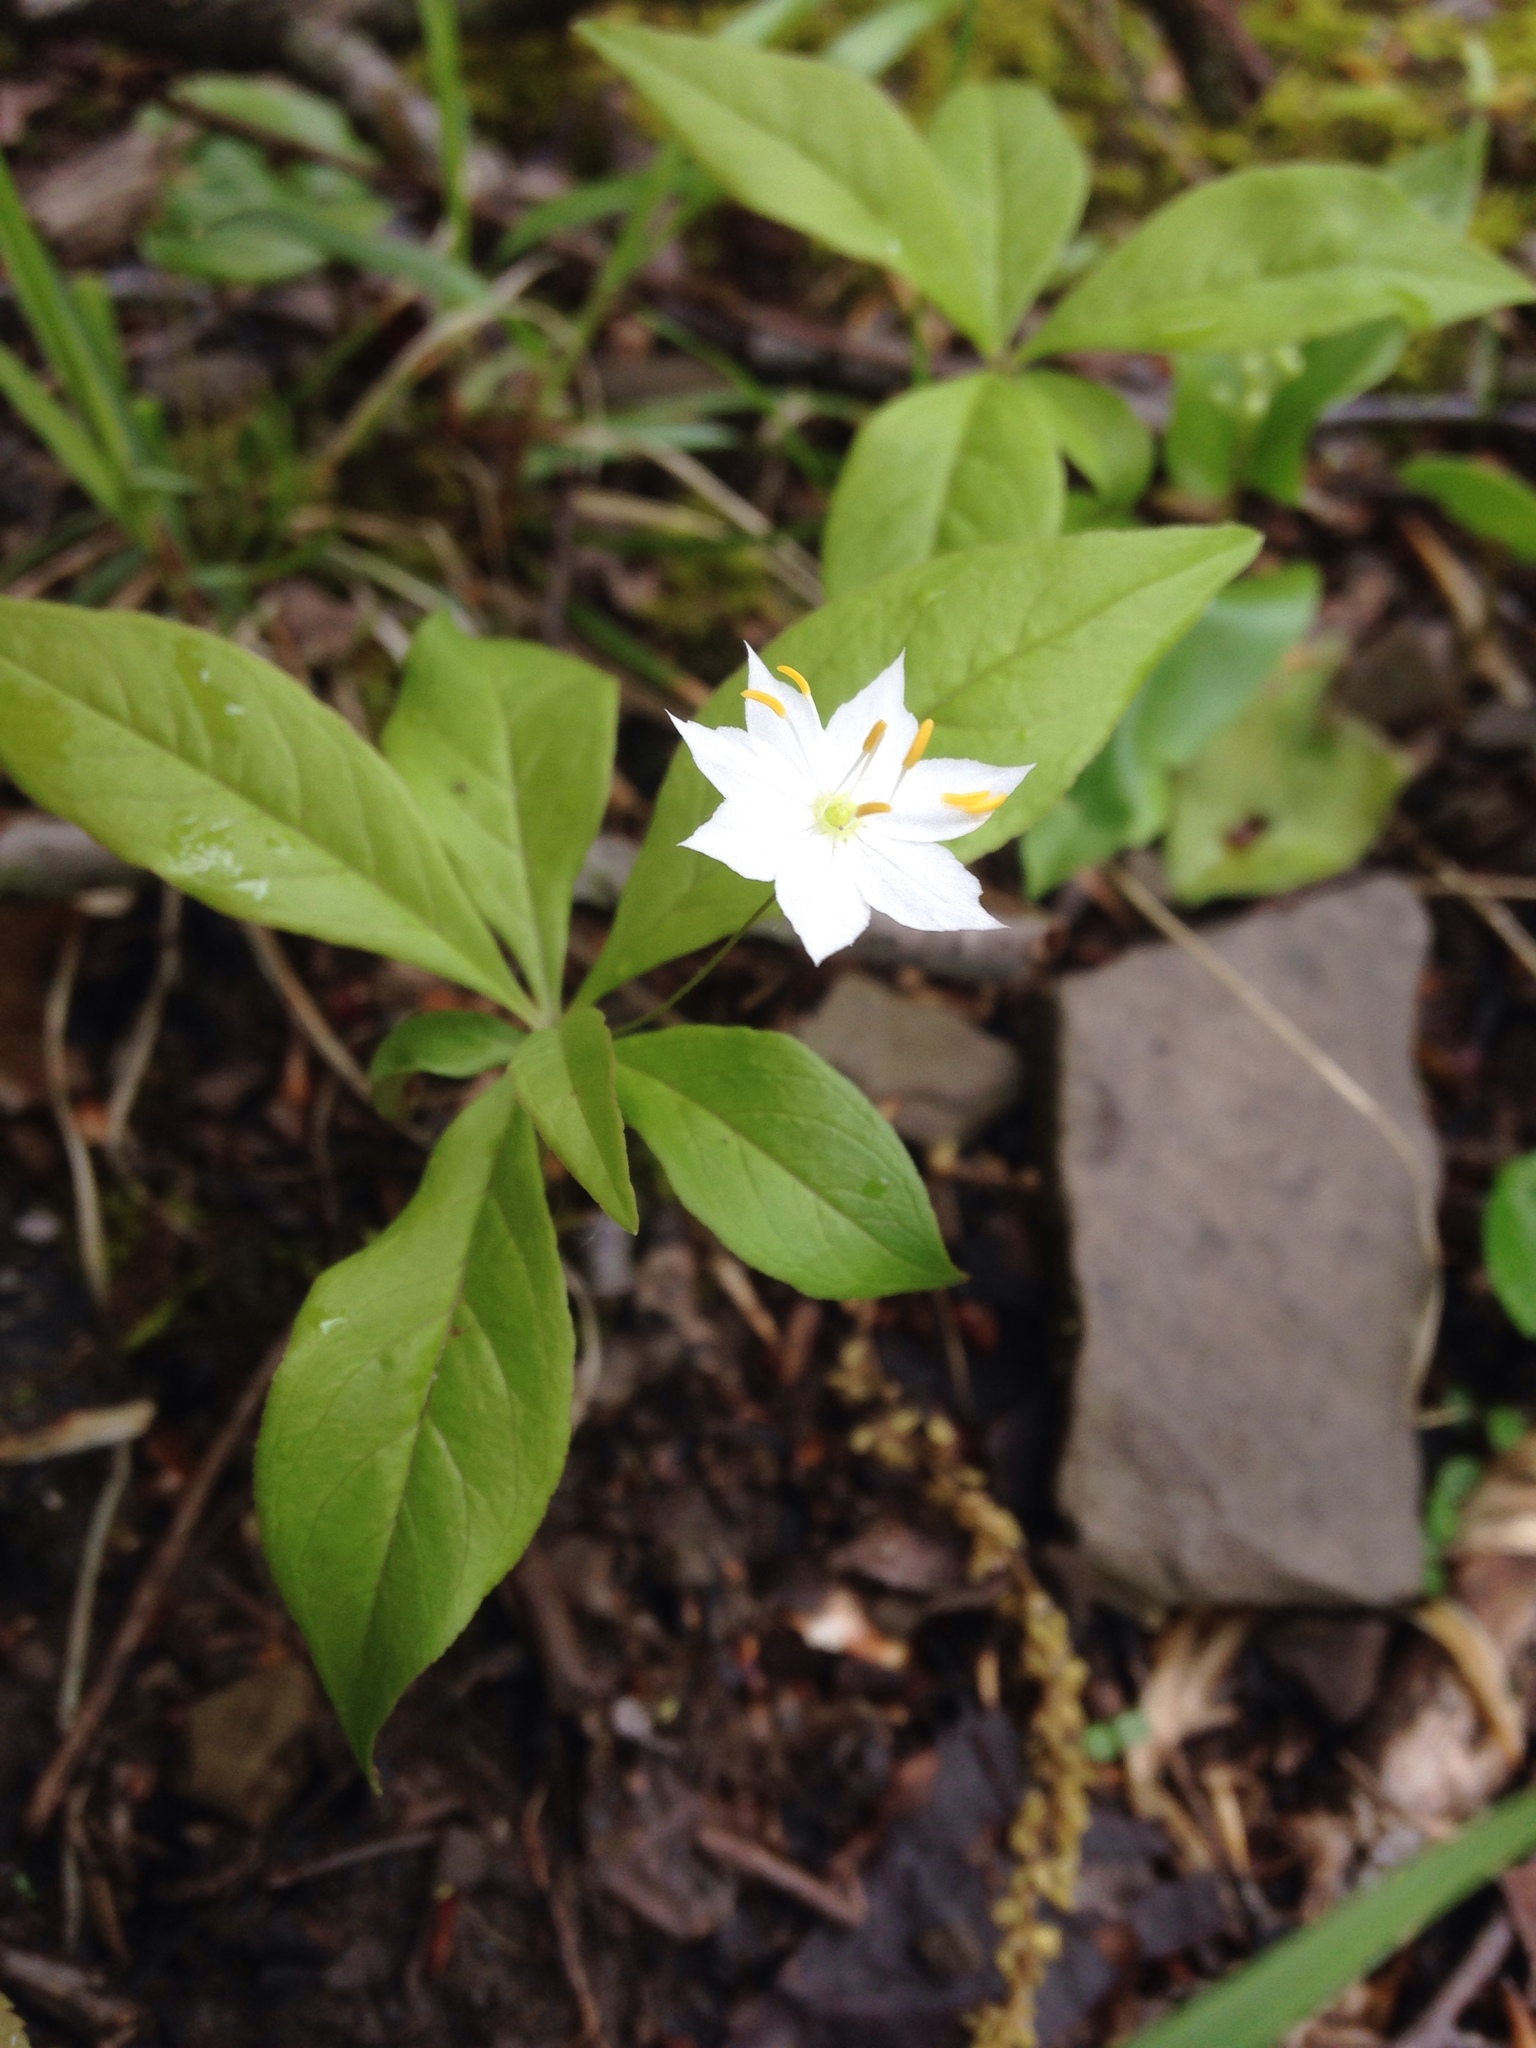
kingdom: Plantae
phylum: Tracheophyta
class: Magnoliopsida
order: Ericales
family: Primulaceae
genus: Lysimachia
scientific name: Lysimachia borealis
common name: American starflower
